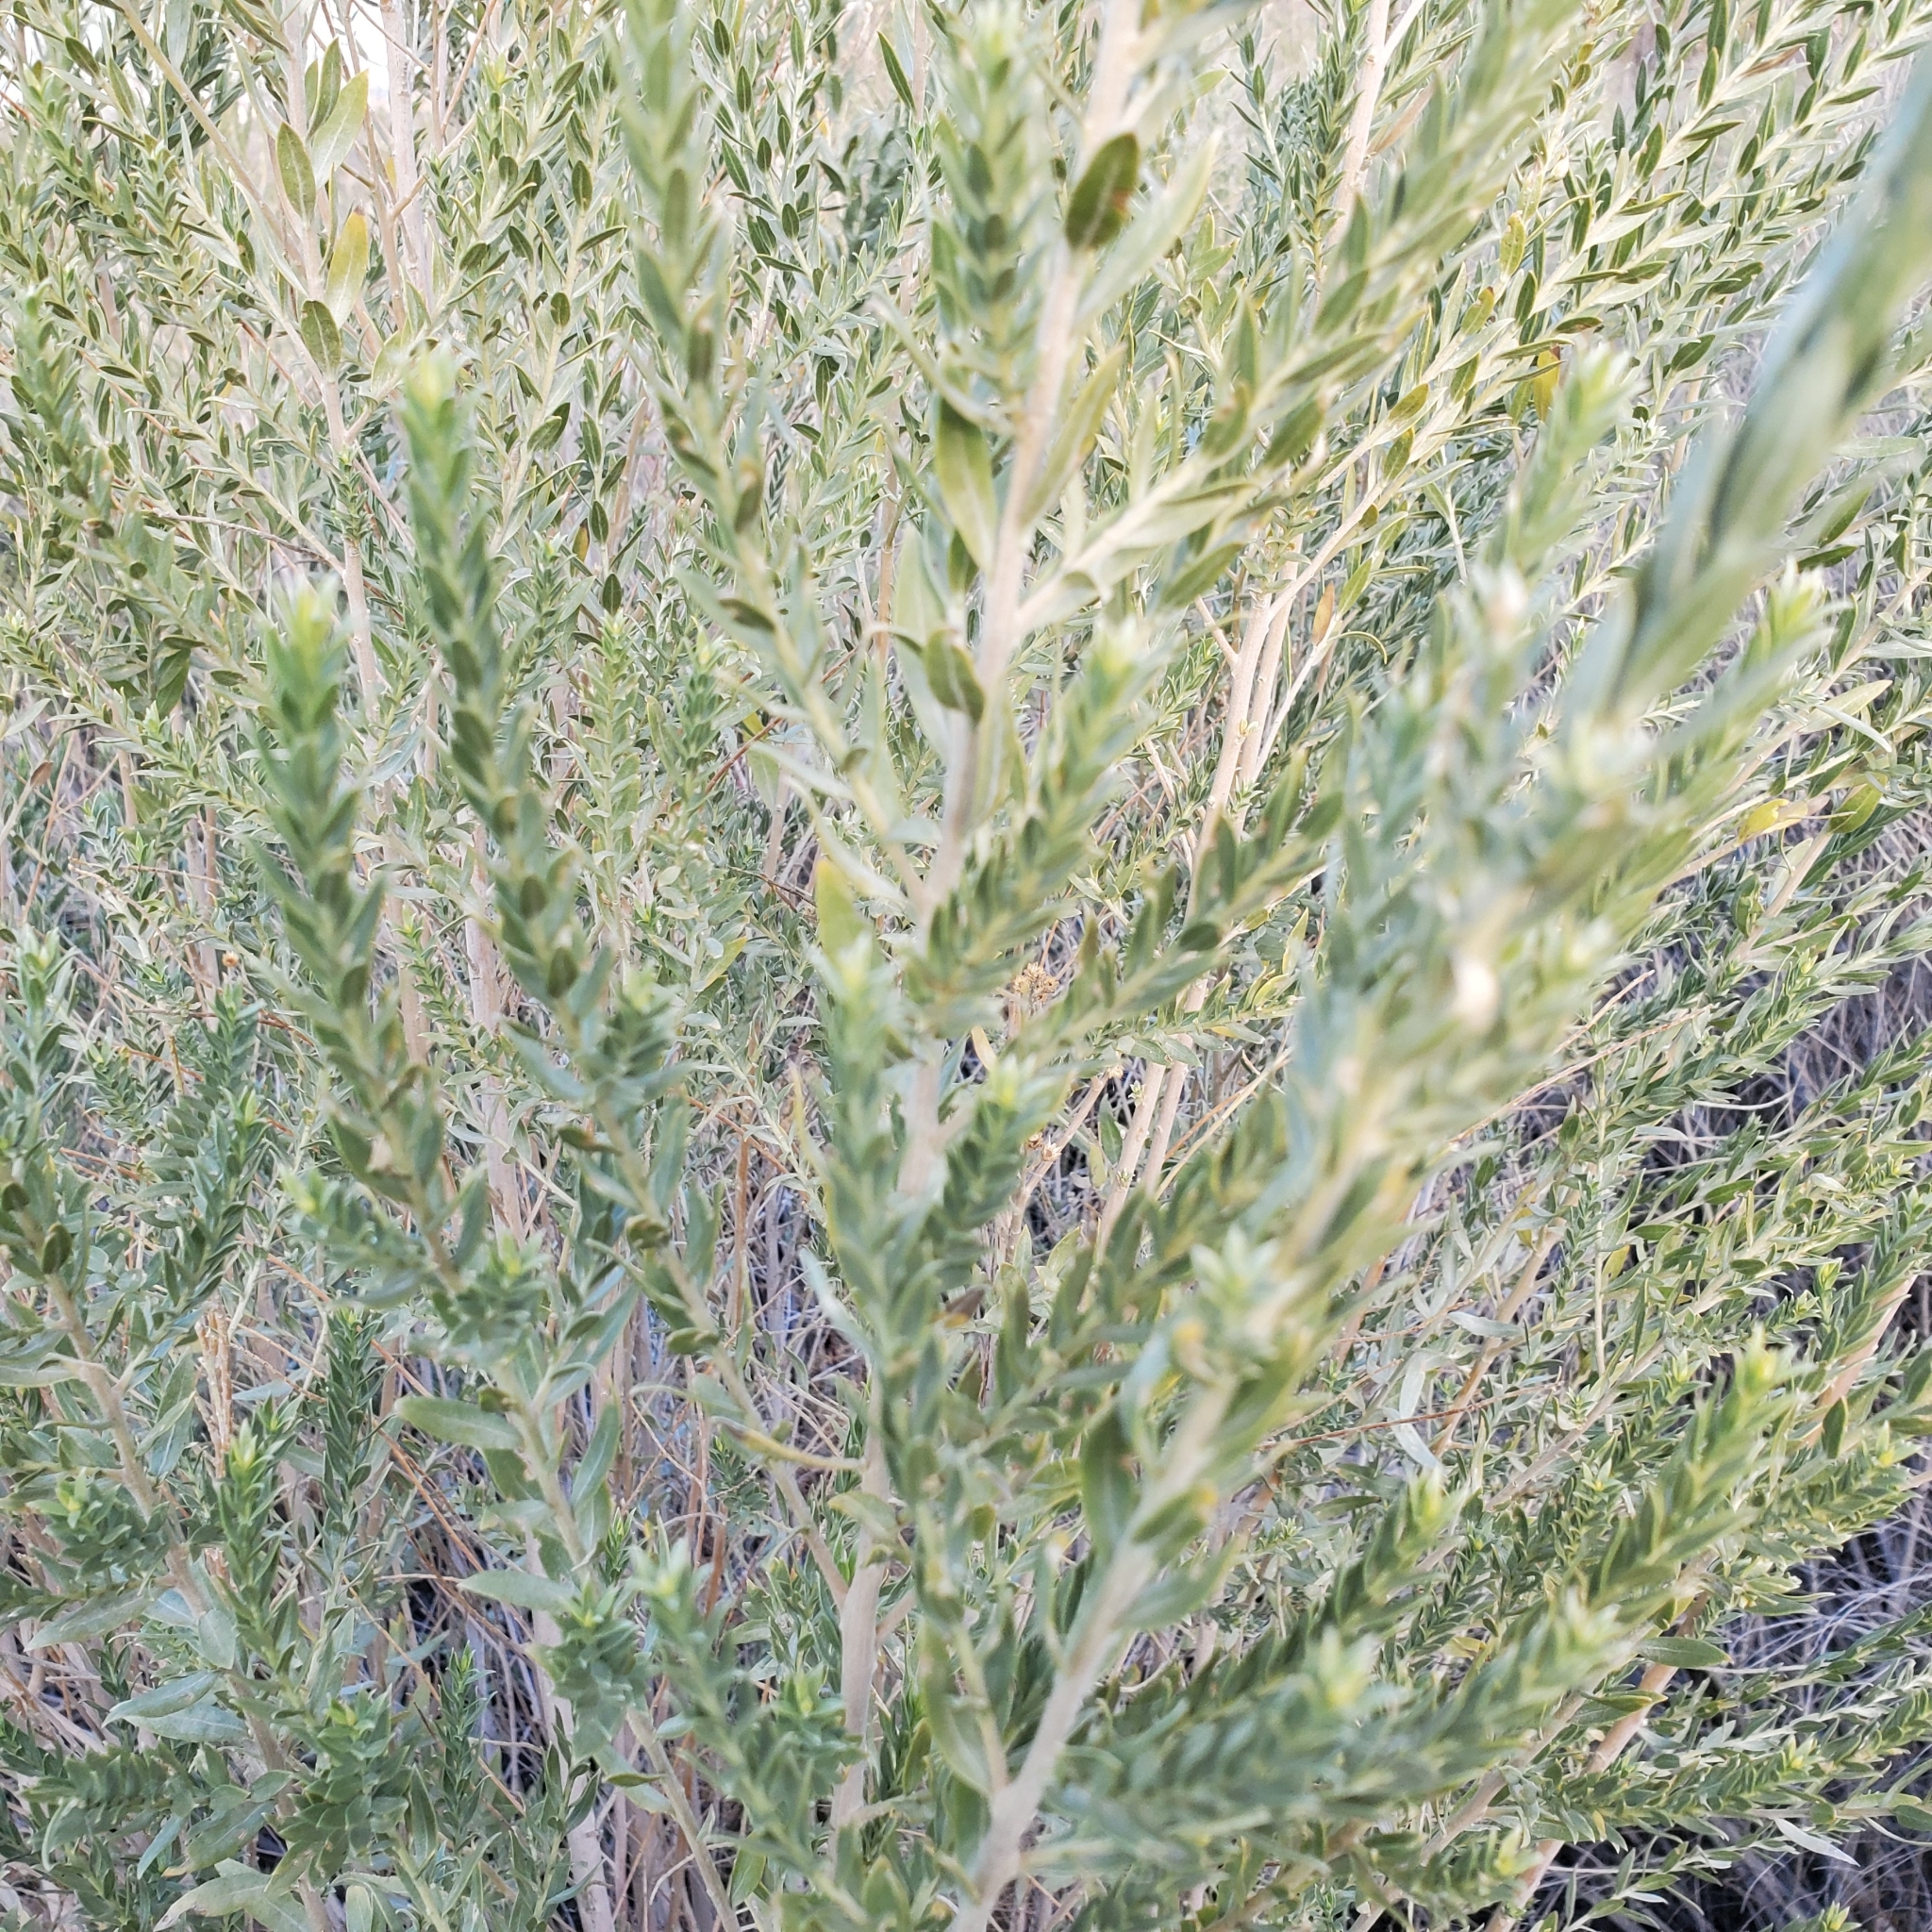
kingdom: Plantae
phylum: Tracheophyta
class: Magnoliopsida
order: Asterales
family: Asteraceae
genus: Pluchea
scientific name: Pluchea sericea
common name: Arrow-weed
